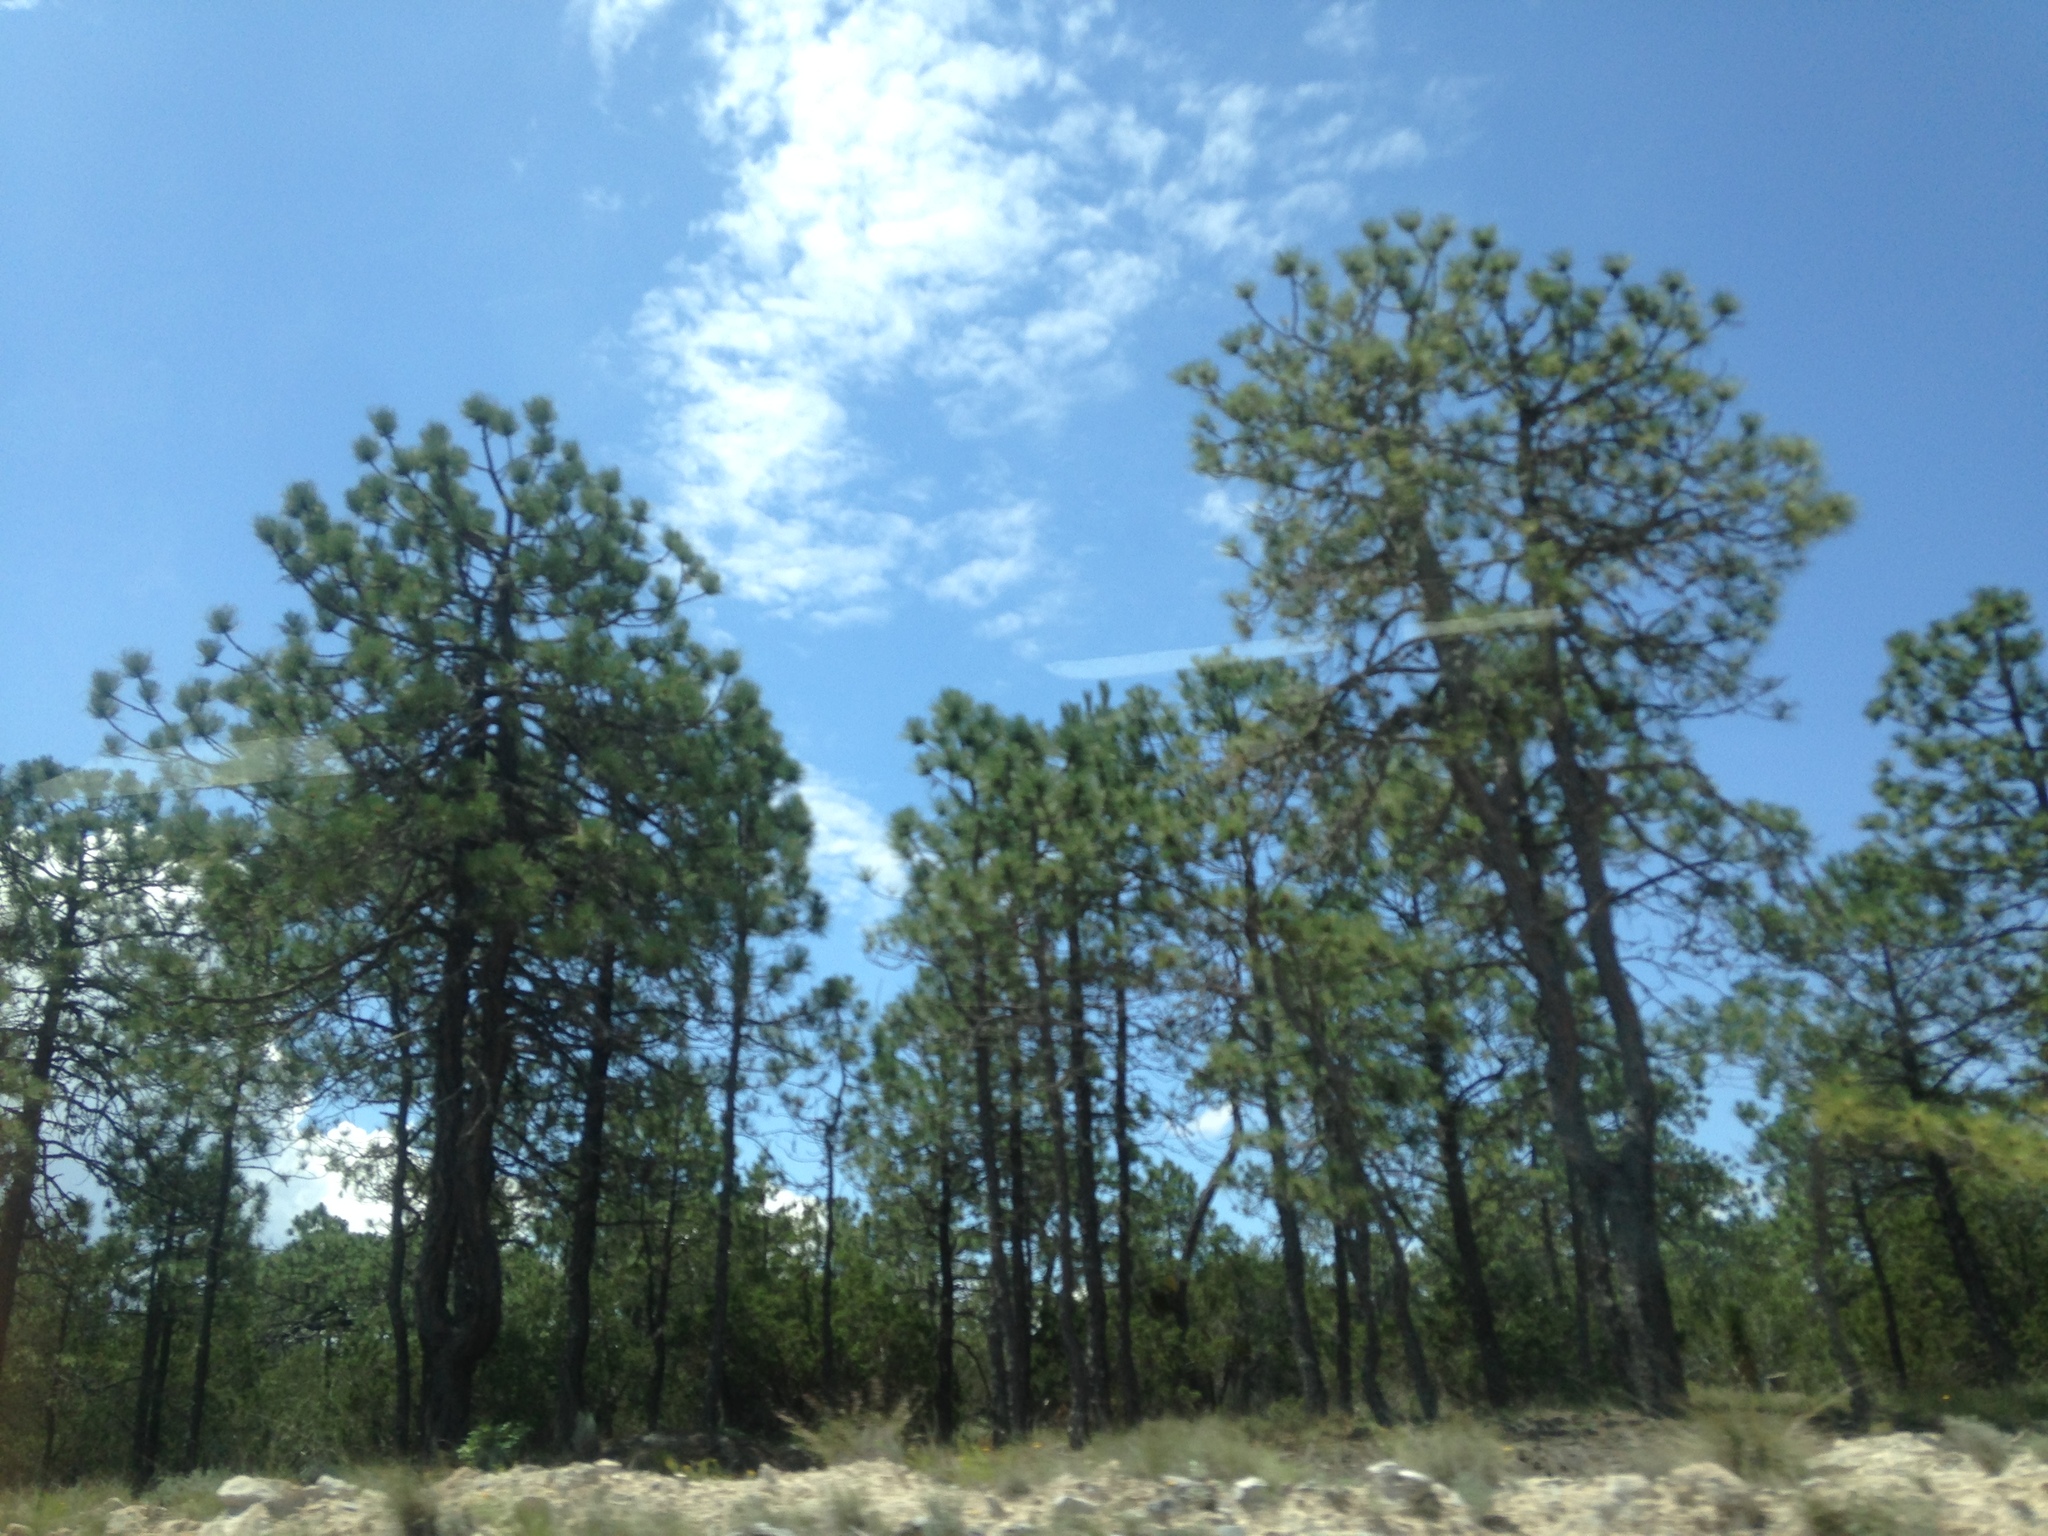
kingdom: Plantae
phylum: Tracheophyta
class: Pinopsida
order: Pinales
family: Pinaceae
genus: Pinus
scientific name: Pinus arizonica
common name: Arizona pine
